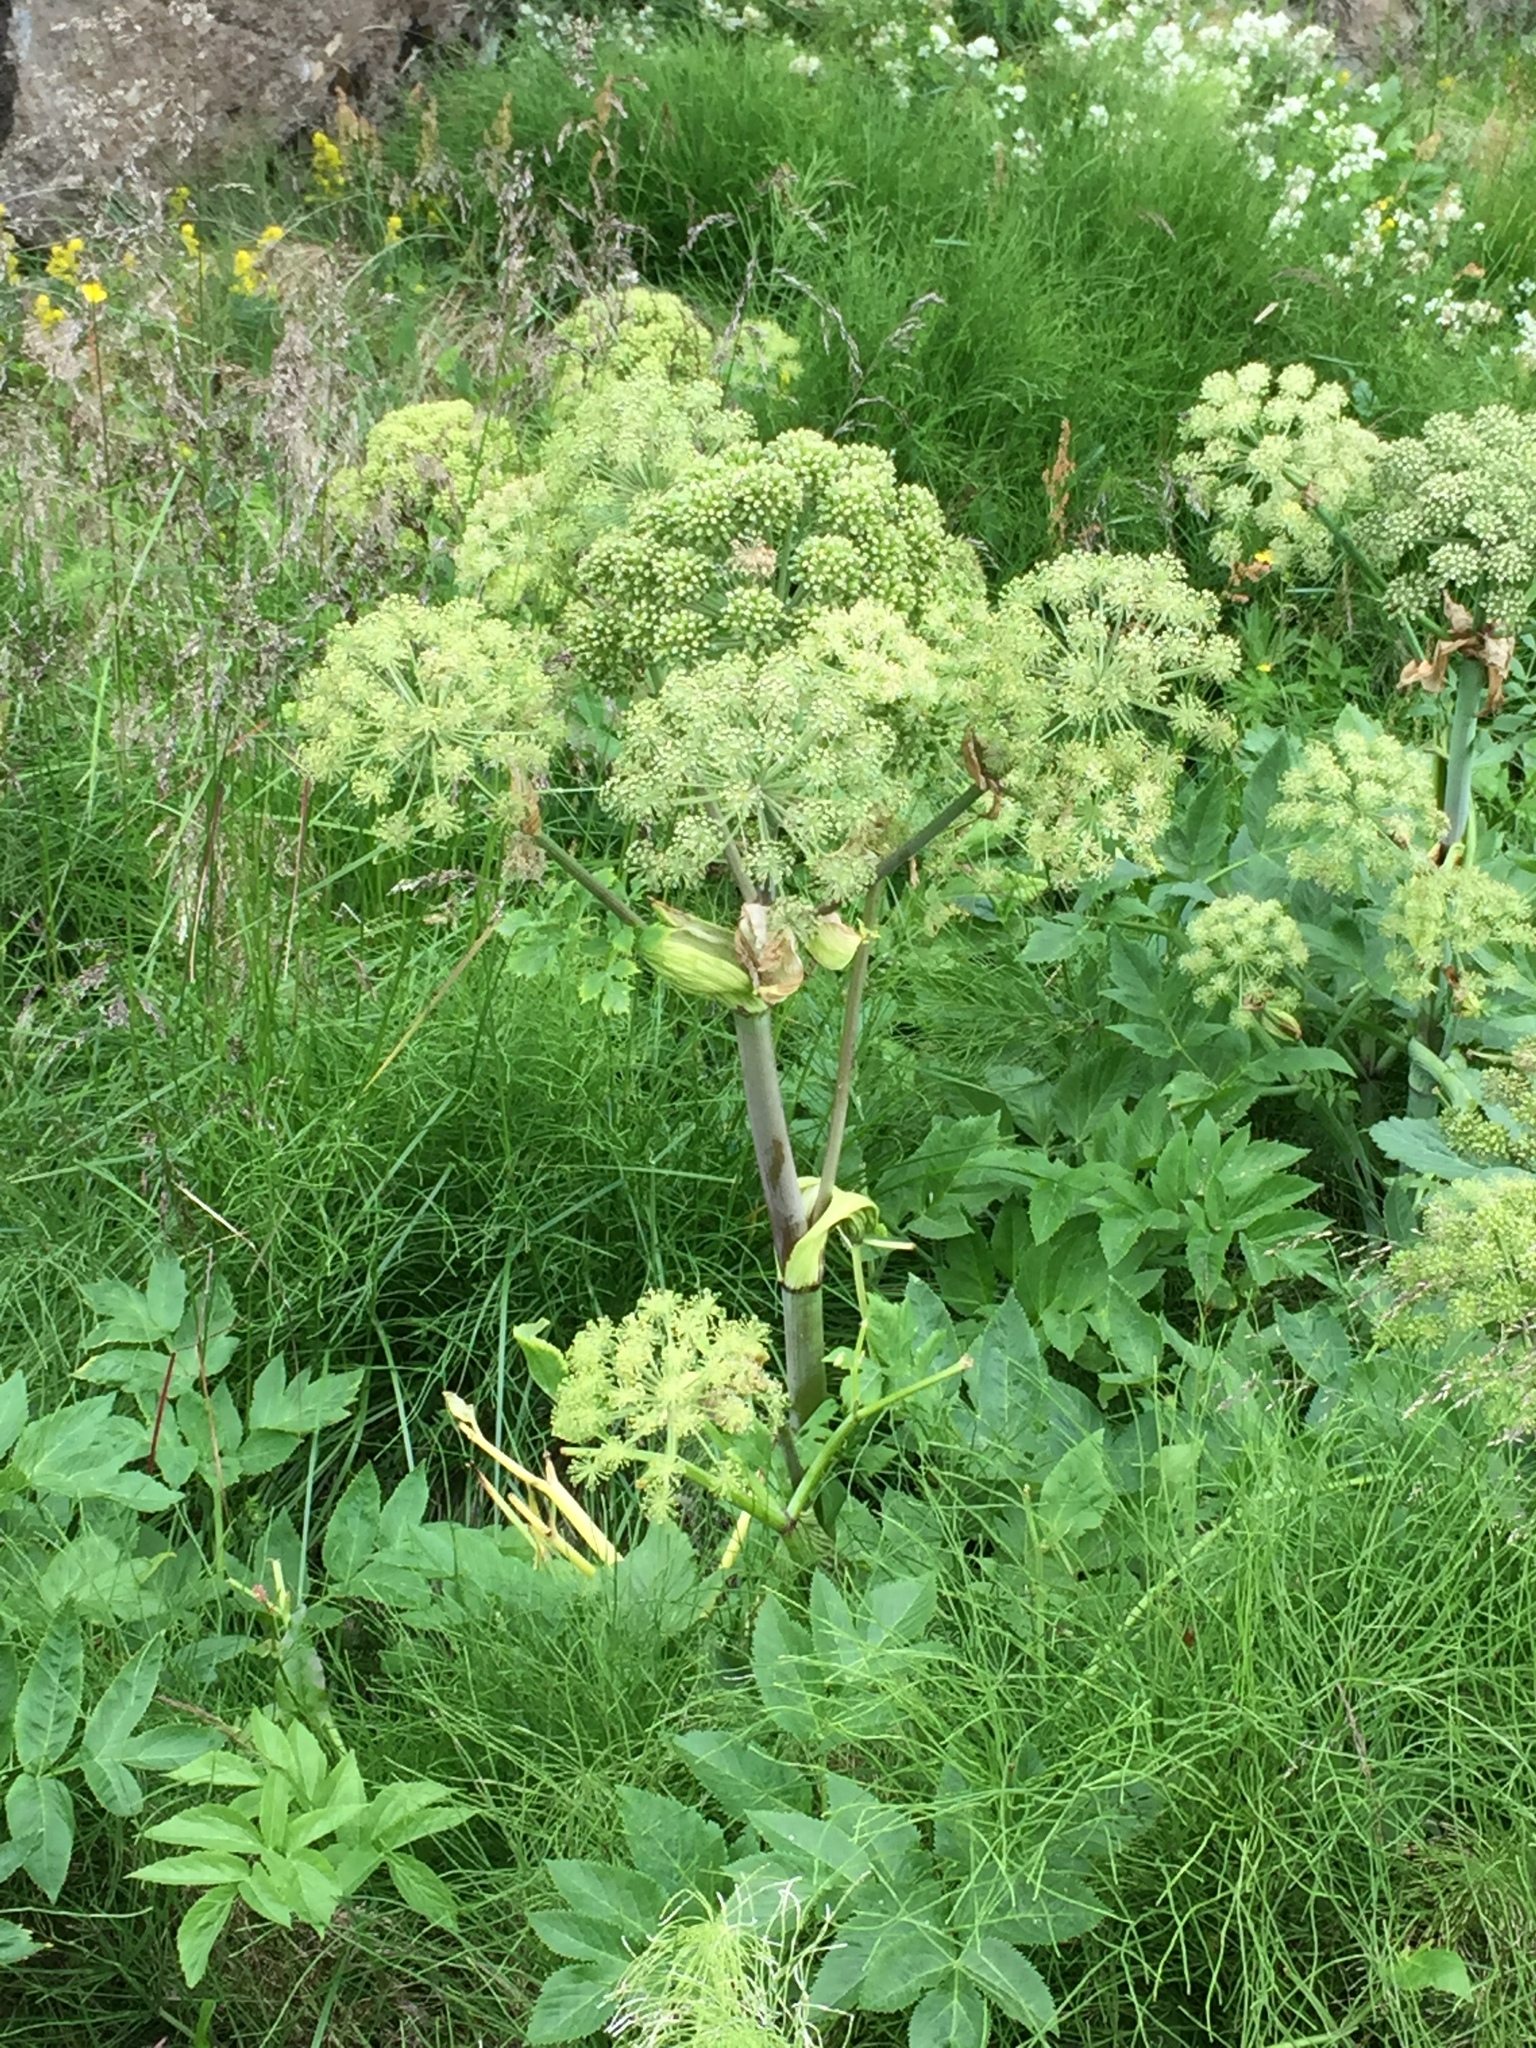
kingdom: Plantae
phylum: Tracheophyta
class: Magnoliopsida
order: Apiales
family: Apiaceae
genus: Angelica
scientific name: Angelica archangelica
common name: Garden angelica
